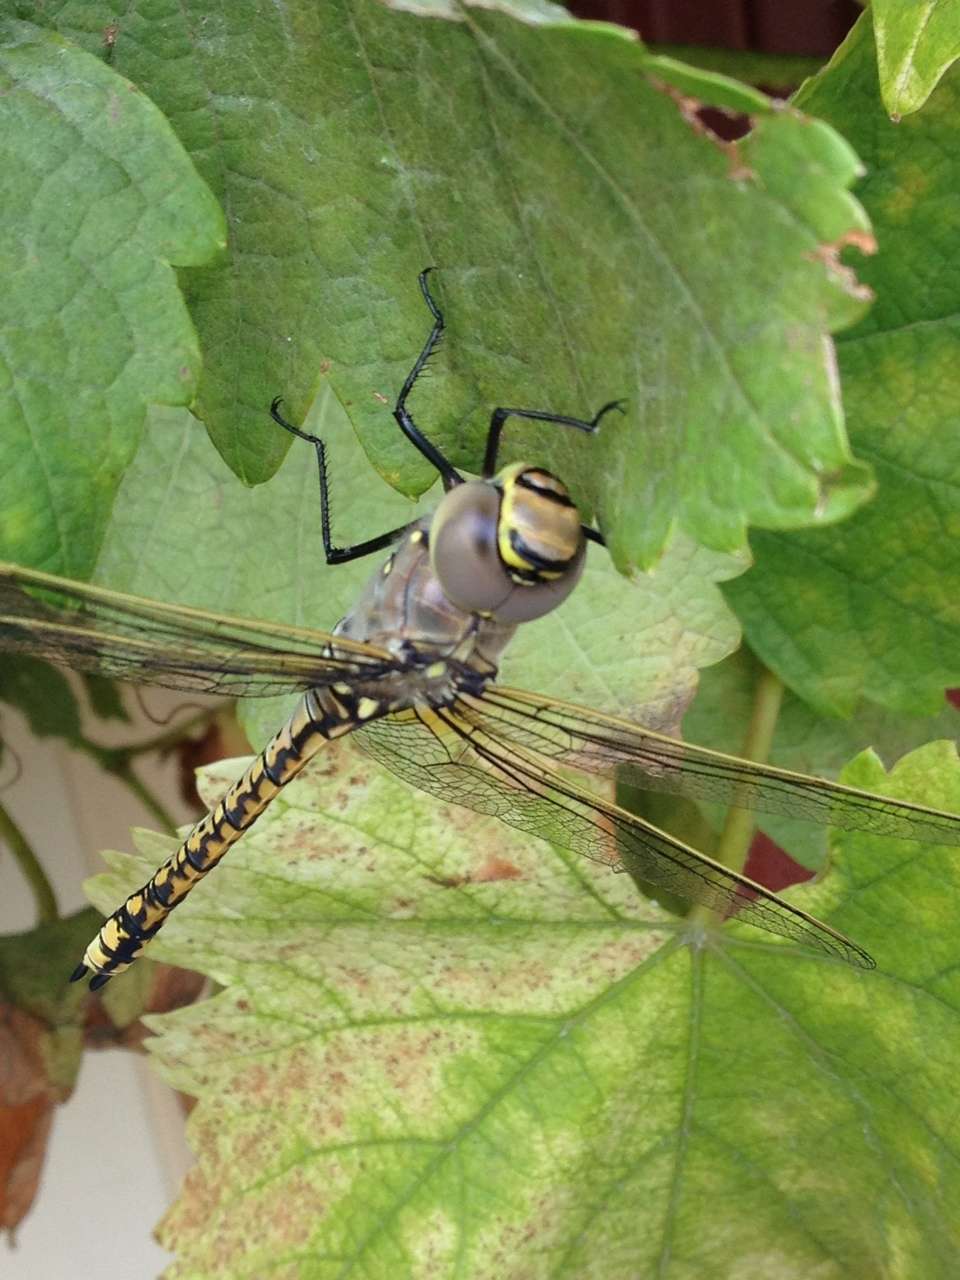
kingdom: Animalia
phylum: Arthropoda
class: Insecta
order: Odonata
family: Aeshnidae
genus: Anax
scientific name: Anax papuensis
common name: Australian emperor
